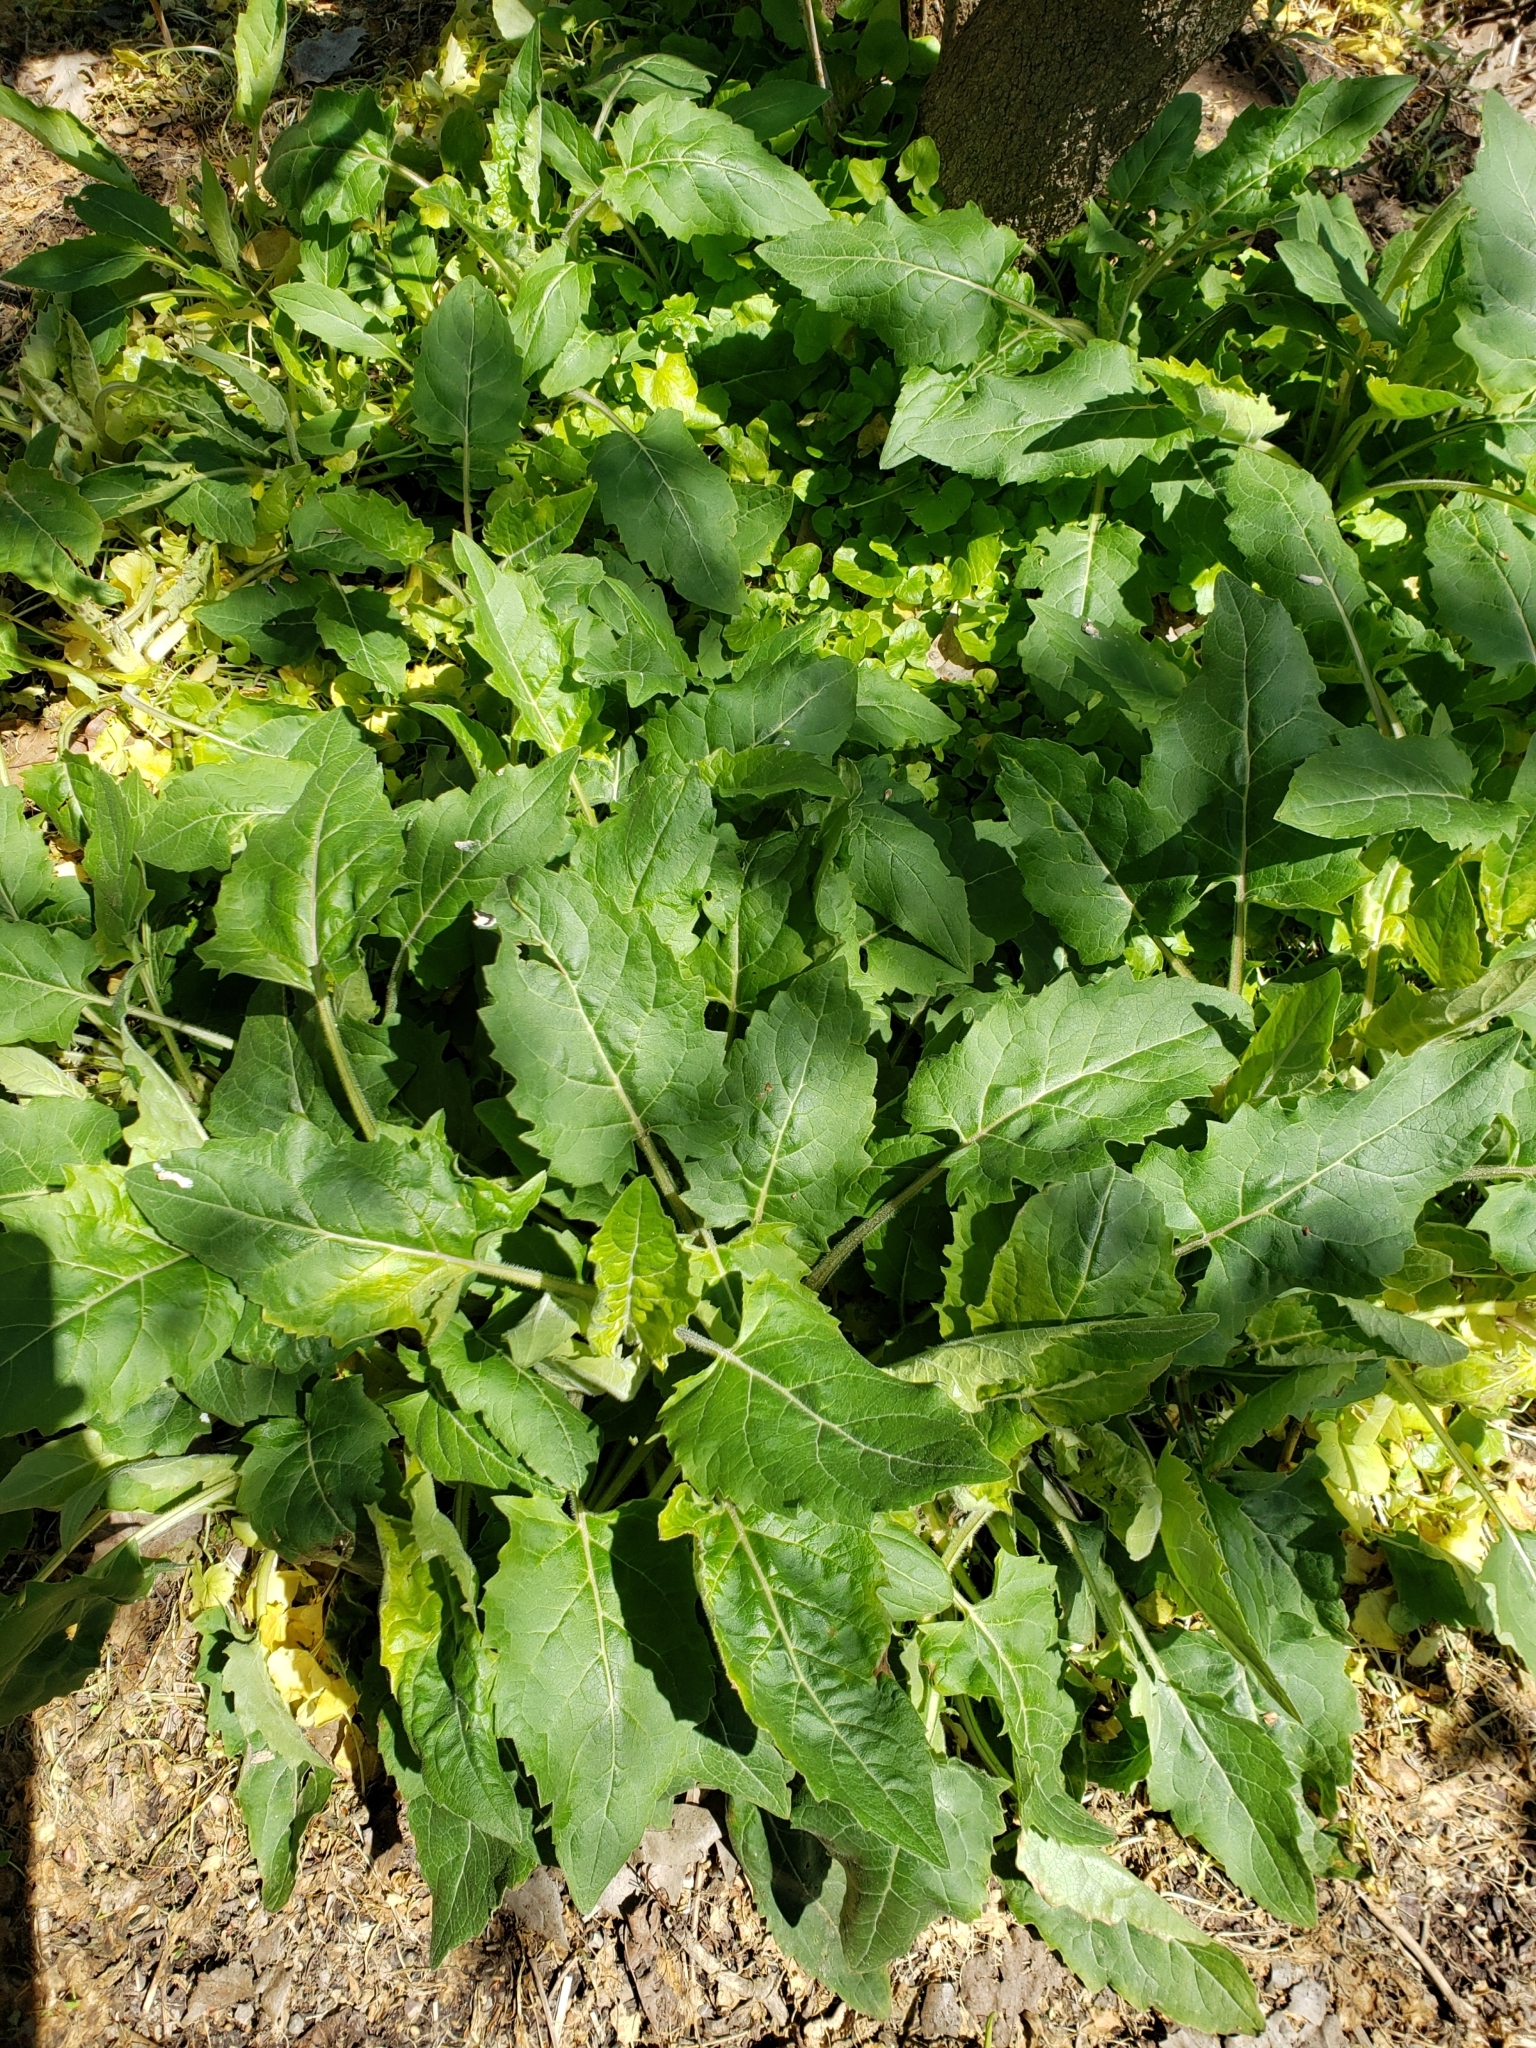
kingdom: Plantae
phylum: Tracheophyta
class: Magnoliopsida
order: Asterales
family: Asteraceae
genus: Silphium
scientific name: Silphium perfoliatum
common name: Cup-plant
